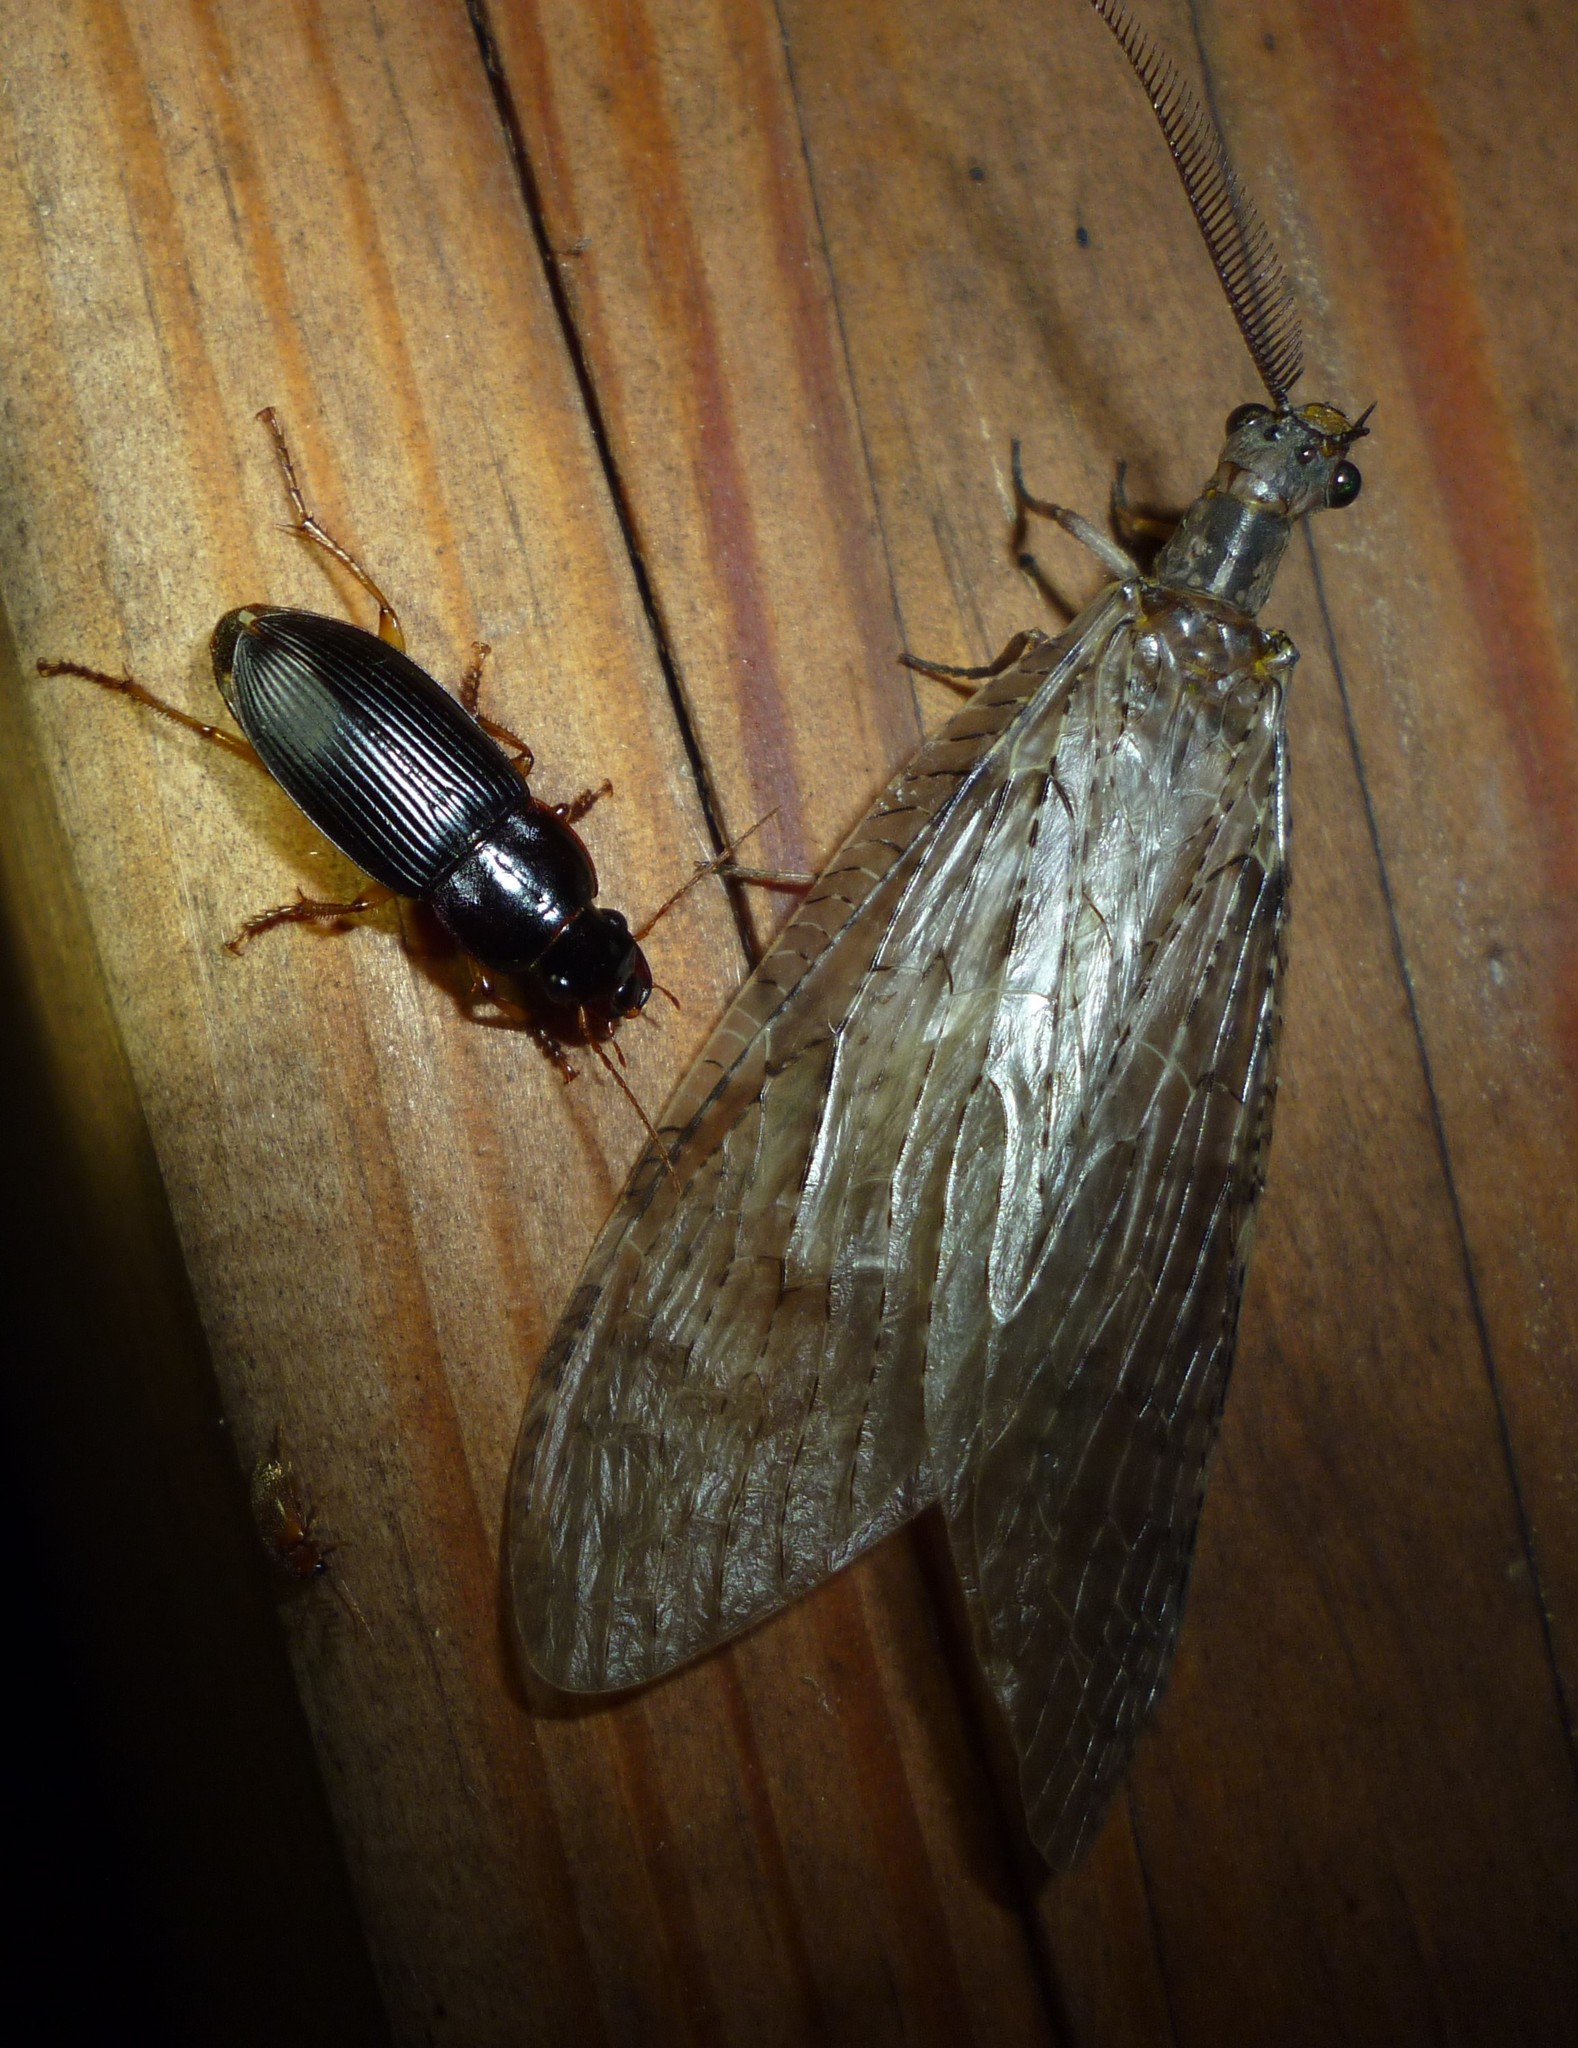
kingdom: Animalia
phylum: Arthropoda
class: Insecta
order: Megaloptera
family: Corydalidae
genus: Chauliodes
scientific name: Chauliodes pectinicornis
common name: Summer fishfly
